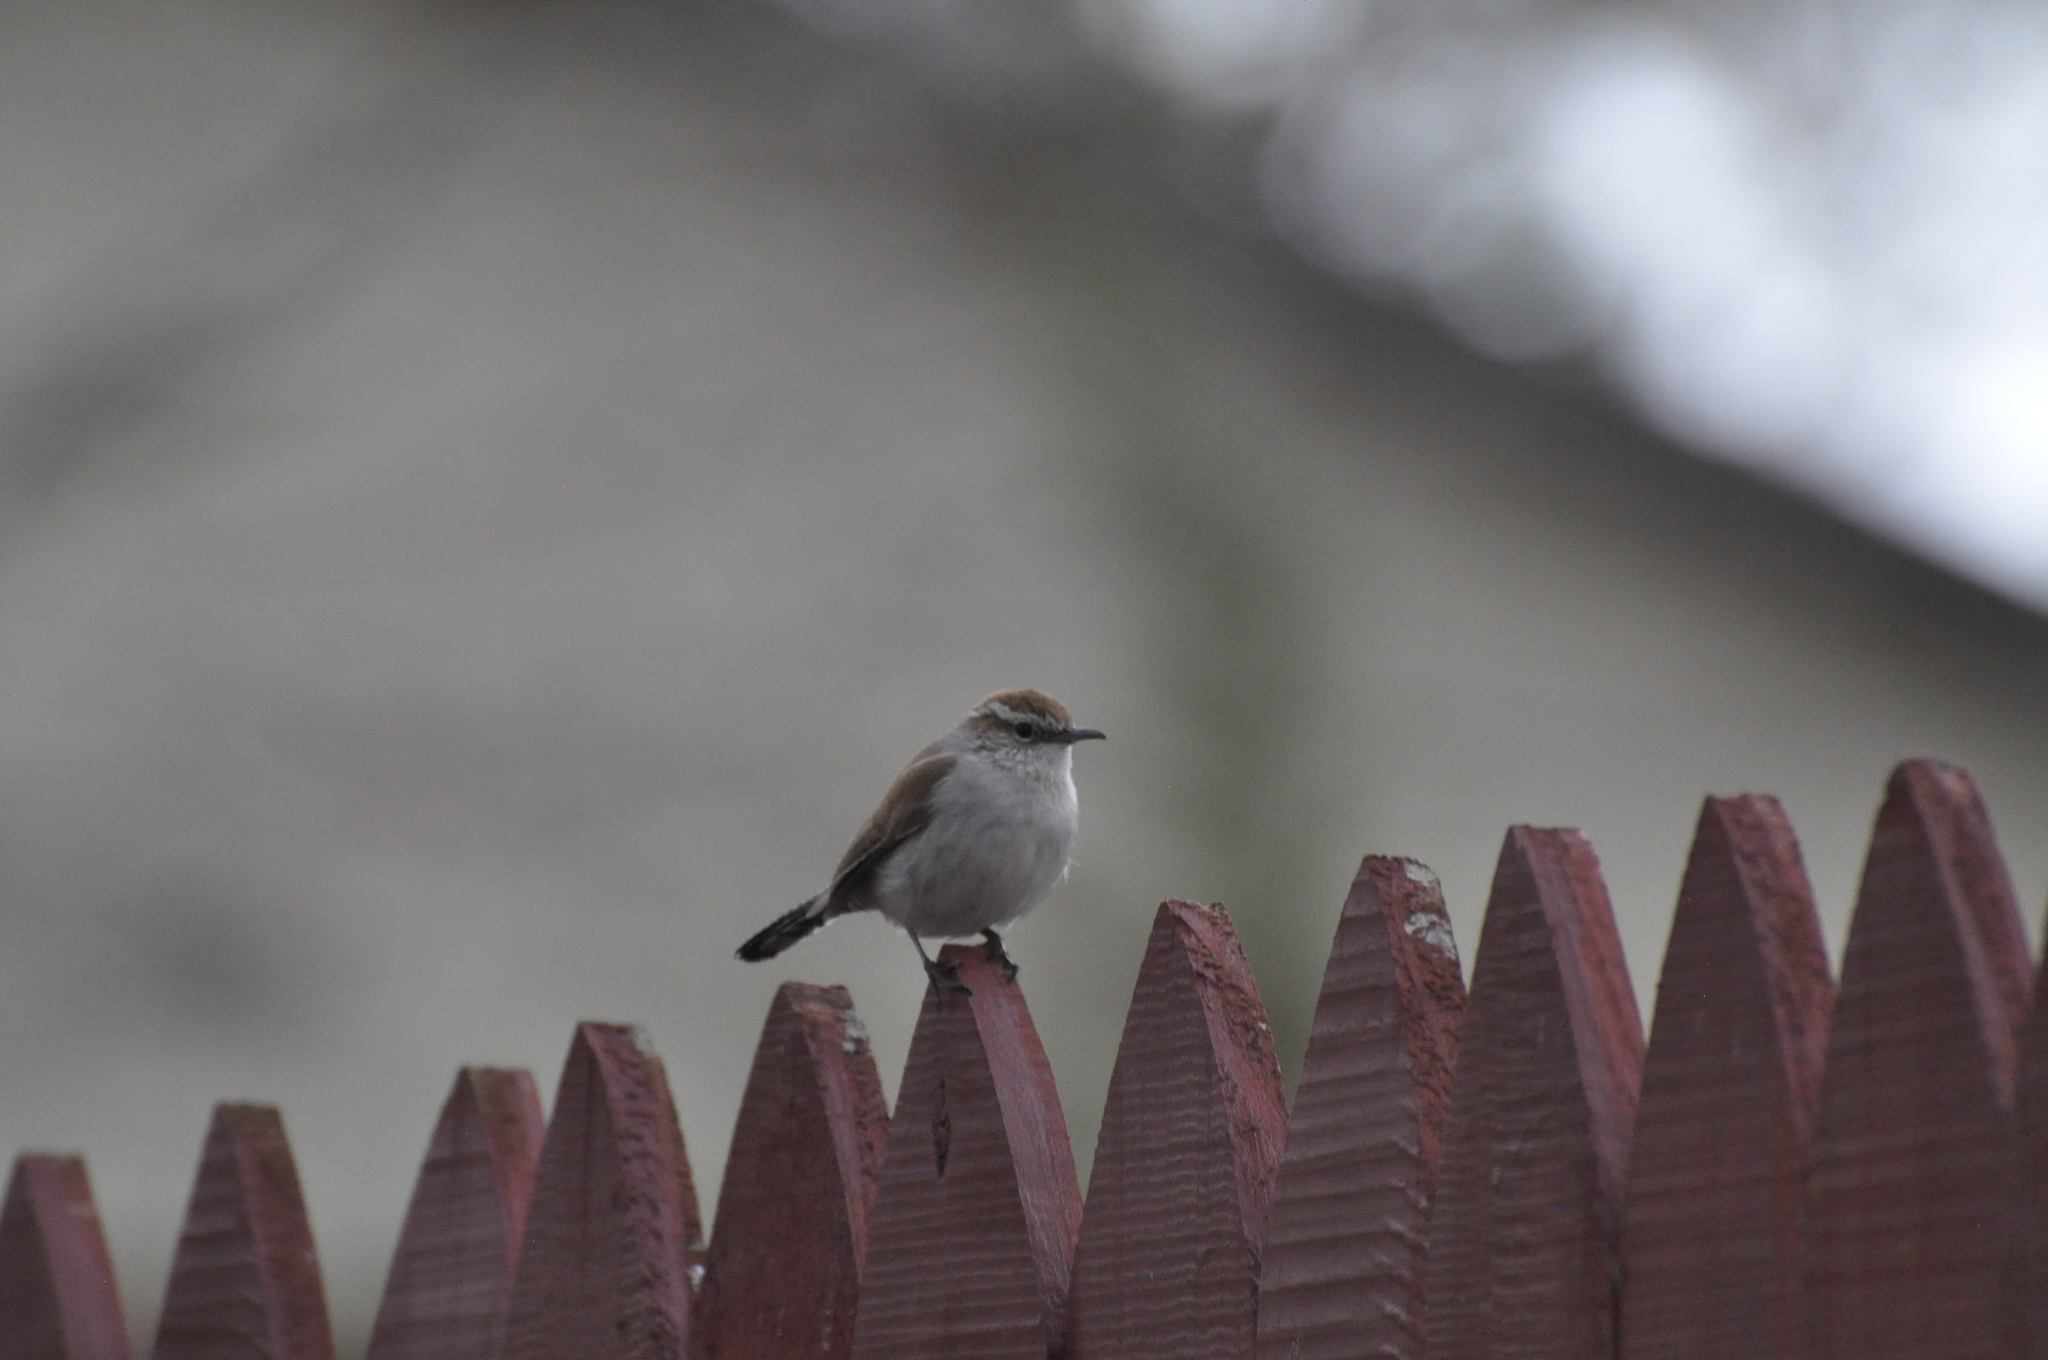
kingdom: Animalia
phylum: Chordata
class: Aves
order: Passeriformes
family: Troglodytidae
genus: Thryomanes
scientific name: Thryomanes bewickii
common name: Bewick's wren
